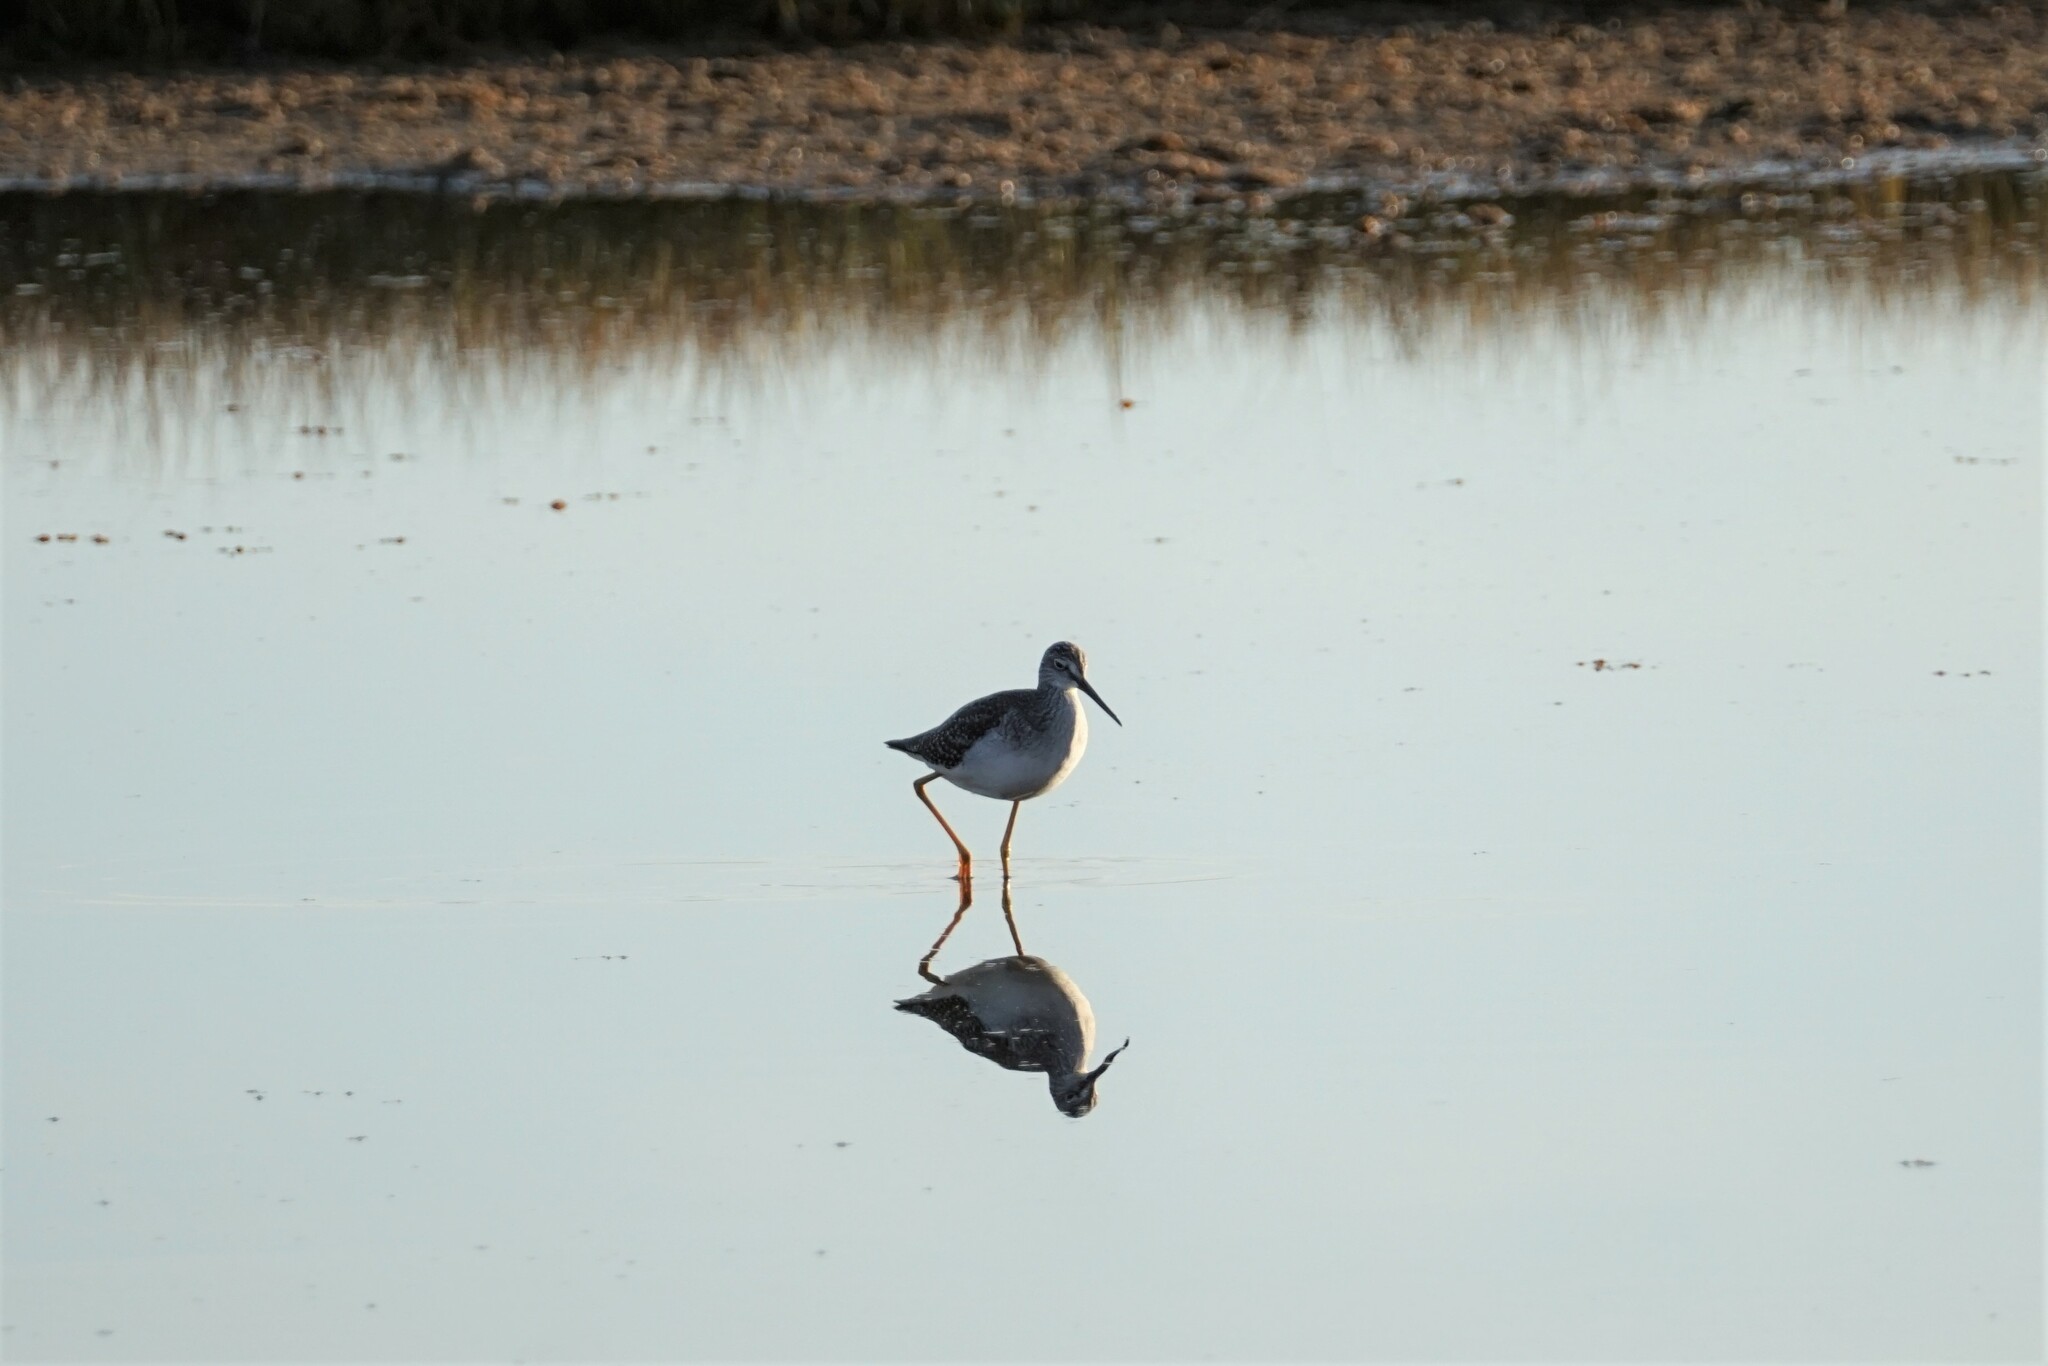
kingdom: Animalia
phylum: Chordata
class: Aves
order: Charadriiformes
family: Scolopacidae
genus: Tringa
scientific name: Tringa melanoleuca
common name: Greater yellowlegs
